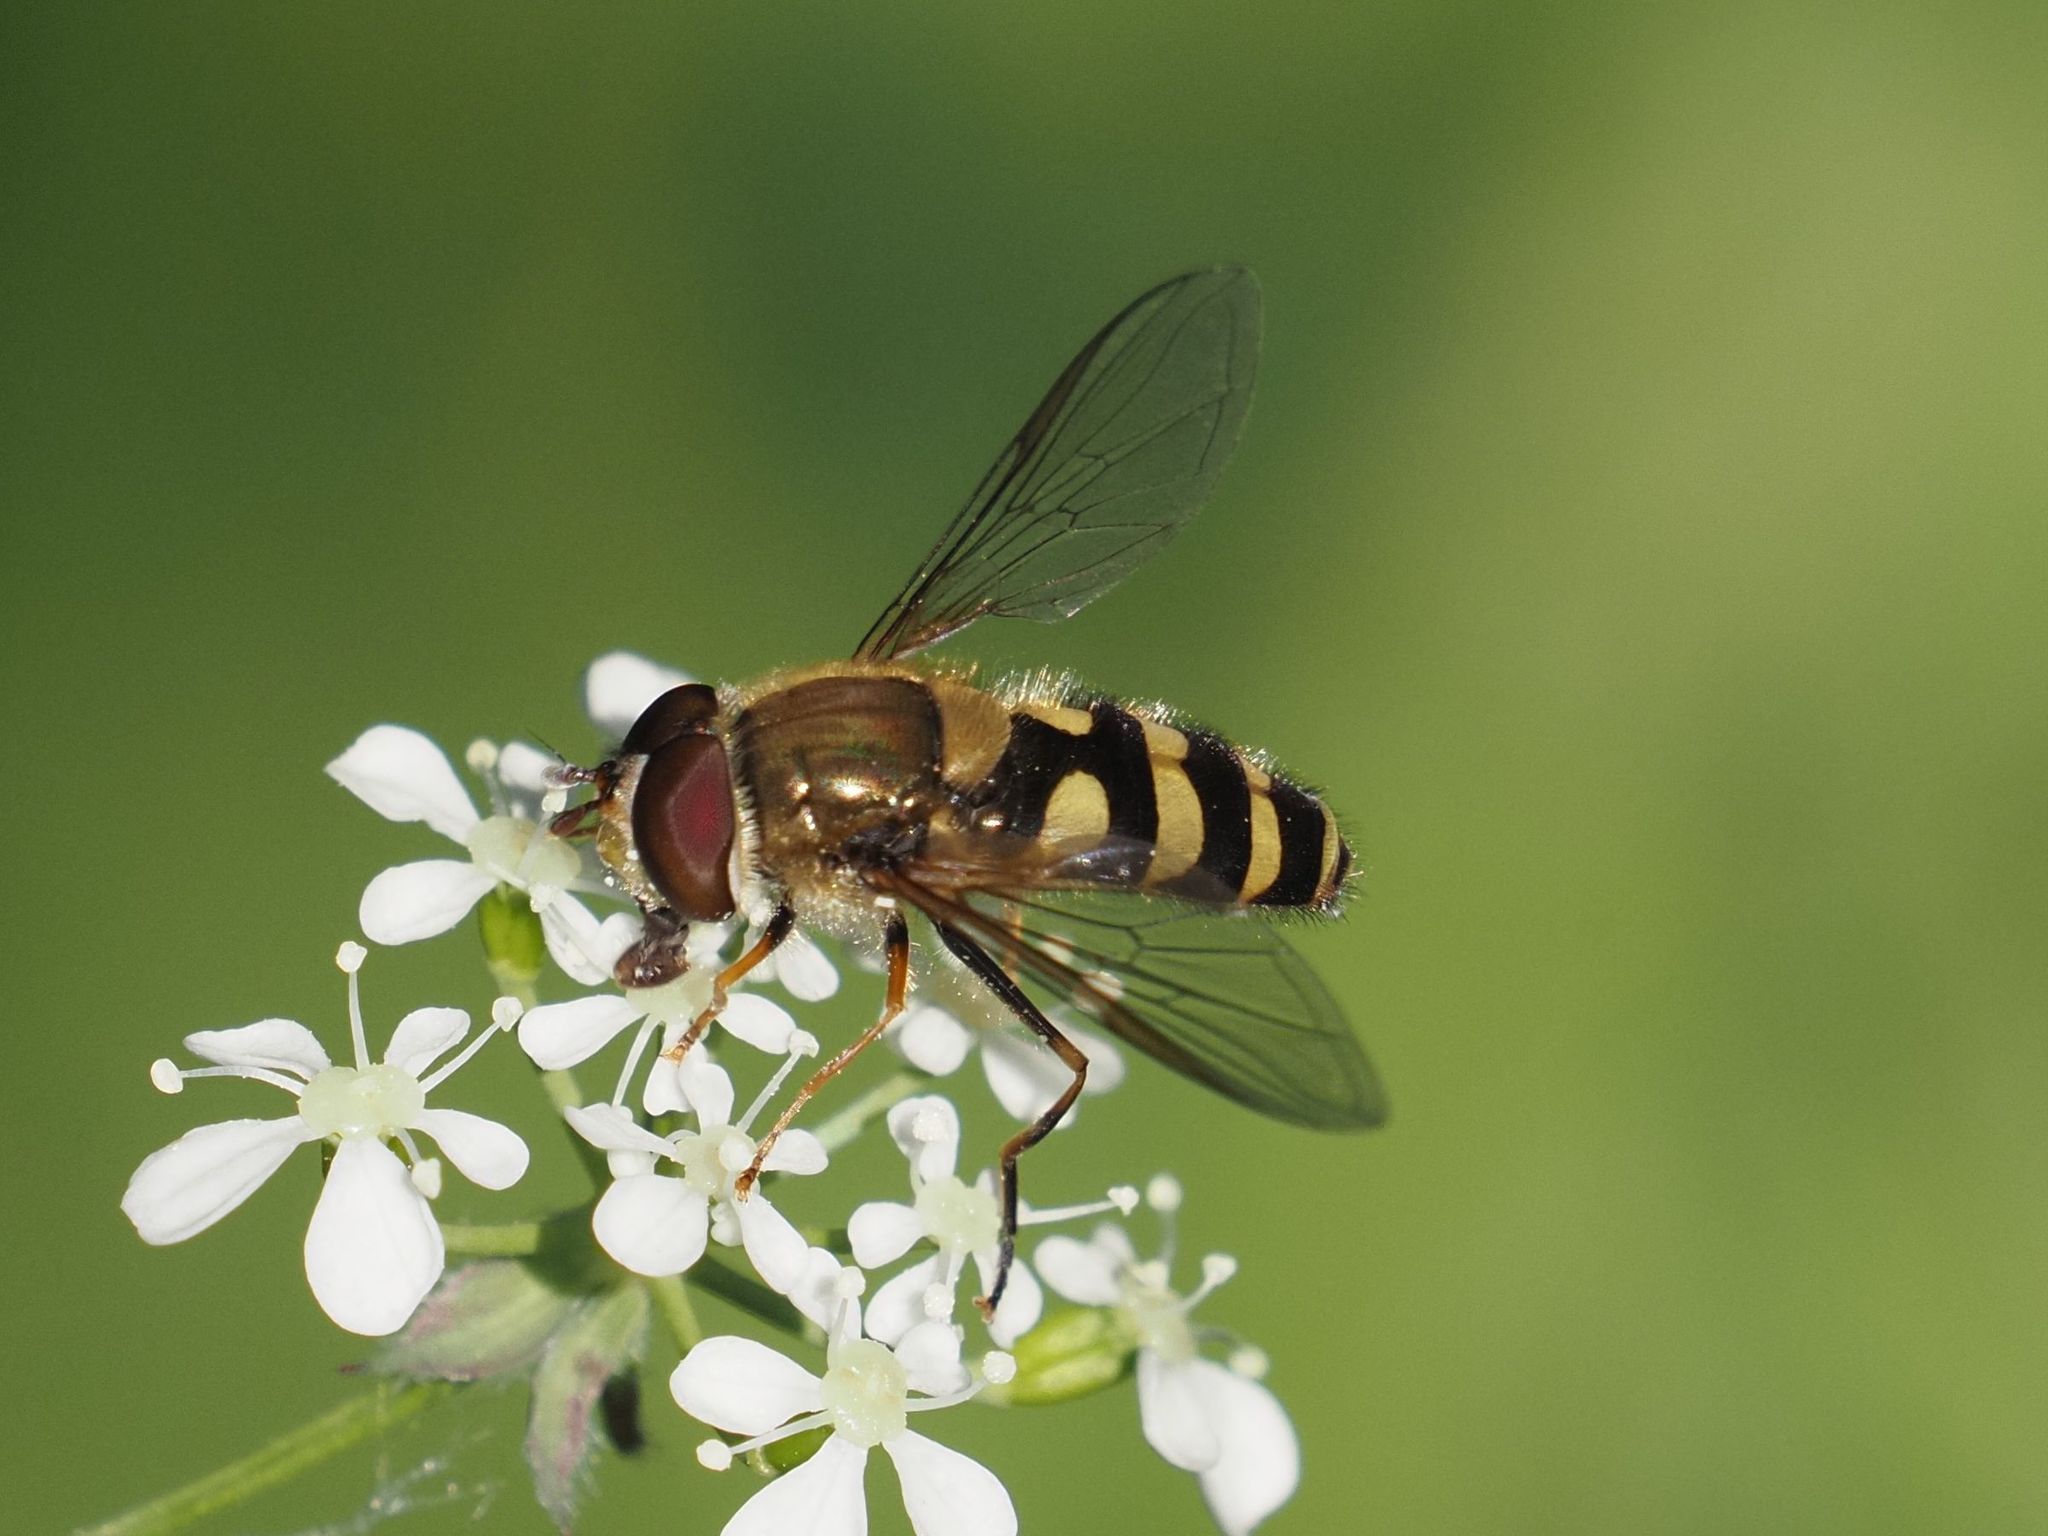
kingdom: Animalia
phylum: Arthropoda
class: Insecta
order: Diptera
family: Syrphidae
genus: Syrphus
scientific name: Syrphus
